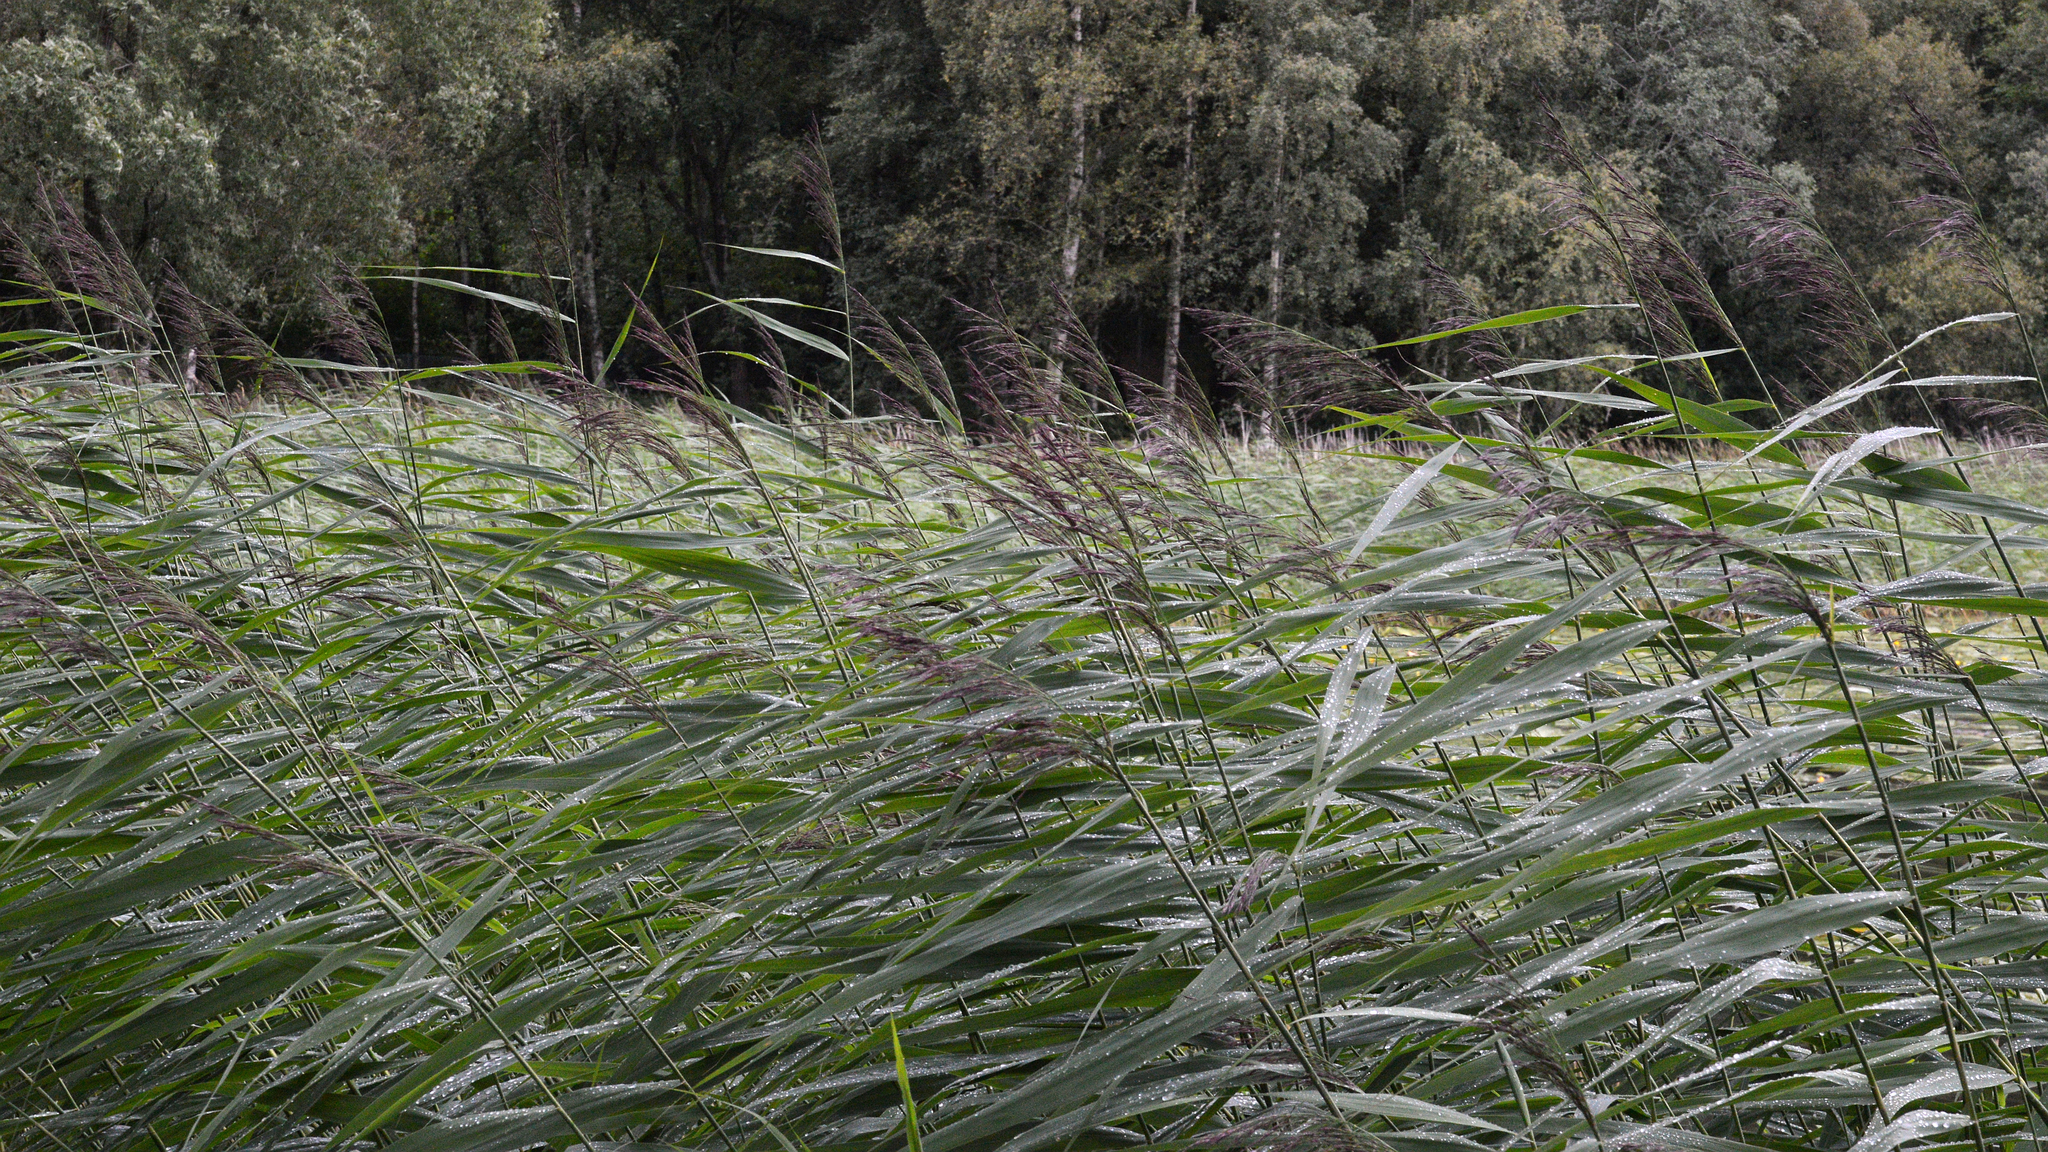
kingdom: Plantae
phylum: Tracheophyta
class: Liliopsida
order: Poales
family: Poaceae
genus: Phragmites
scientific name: Phragmites australis
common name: Common reed
